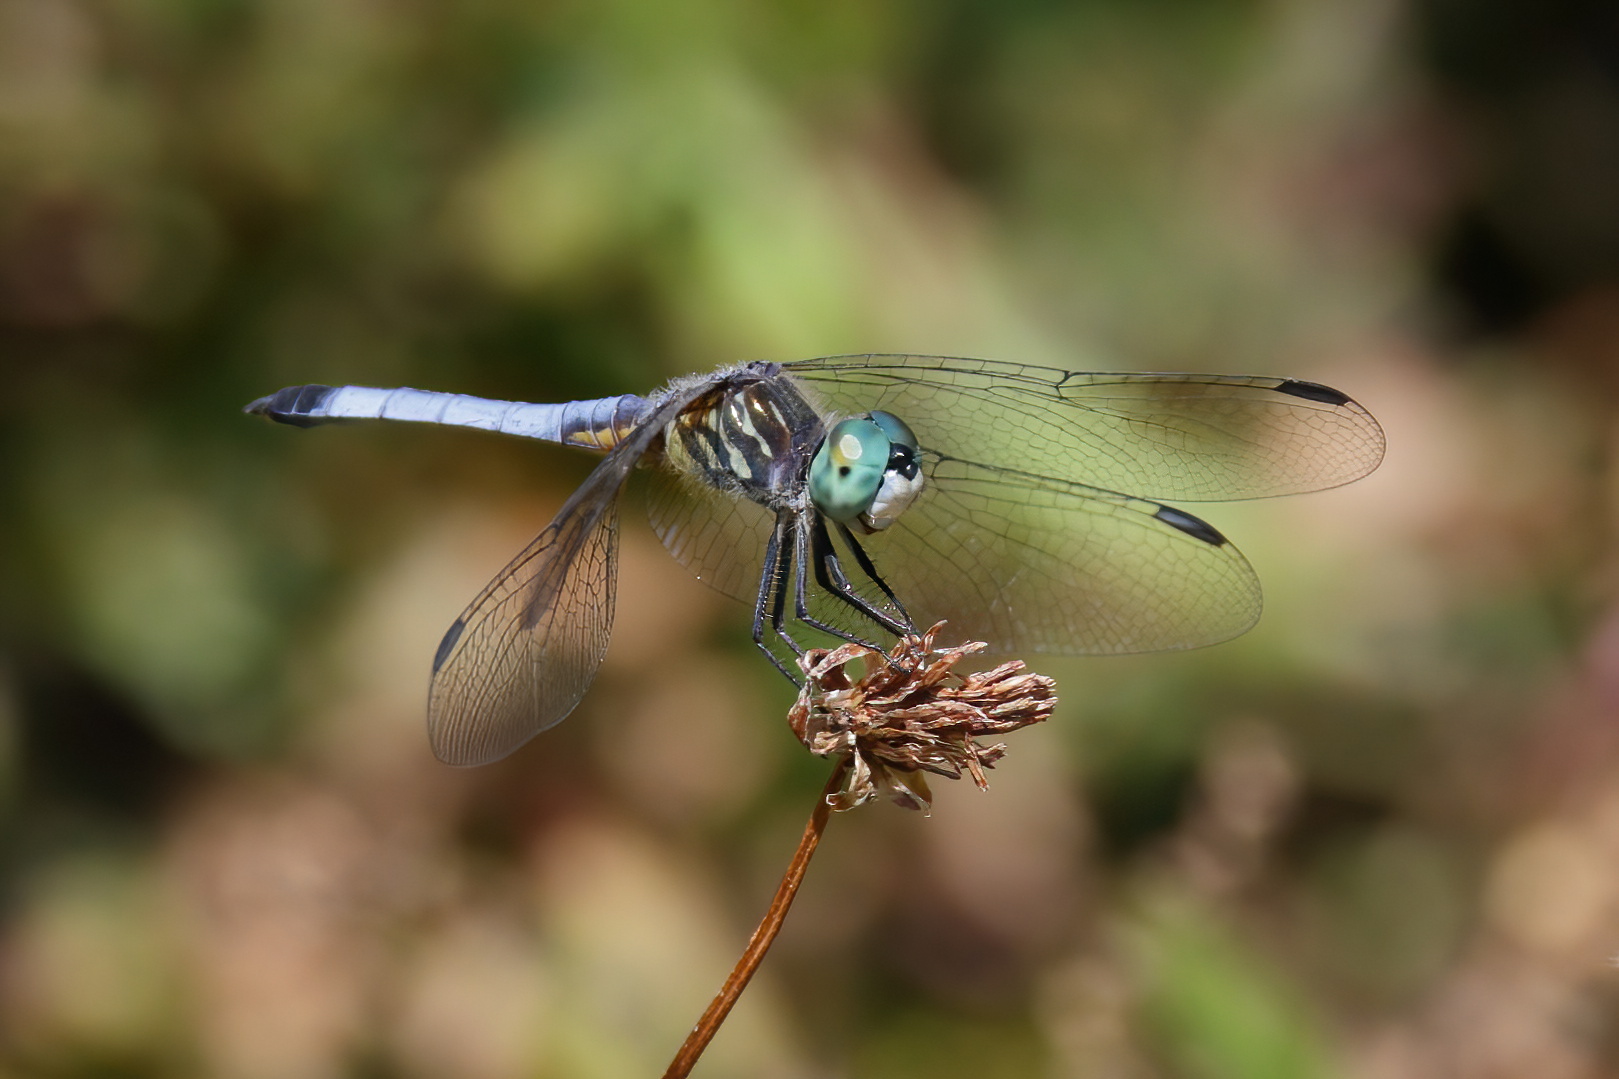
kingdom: Animalia
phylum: Arthropoda
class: Insecta
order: Odonata
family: Libellulidae
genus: Pachydiplax
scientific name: Pachydiplax longipennis
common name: Blue dasher
